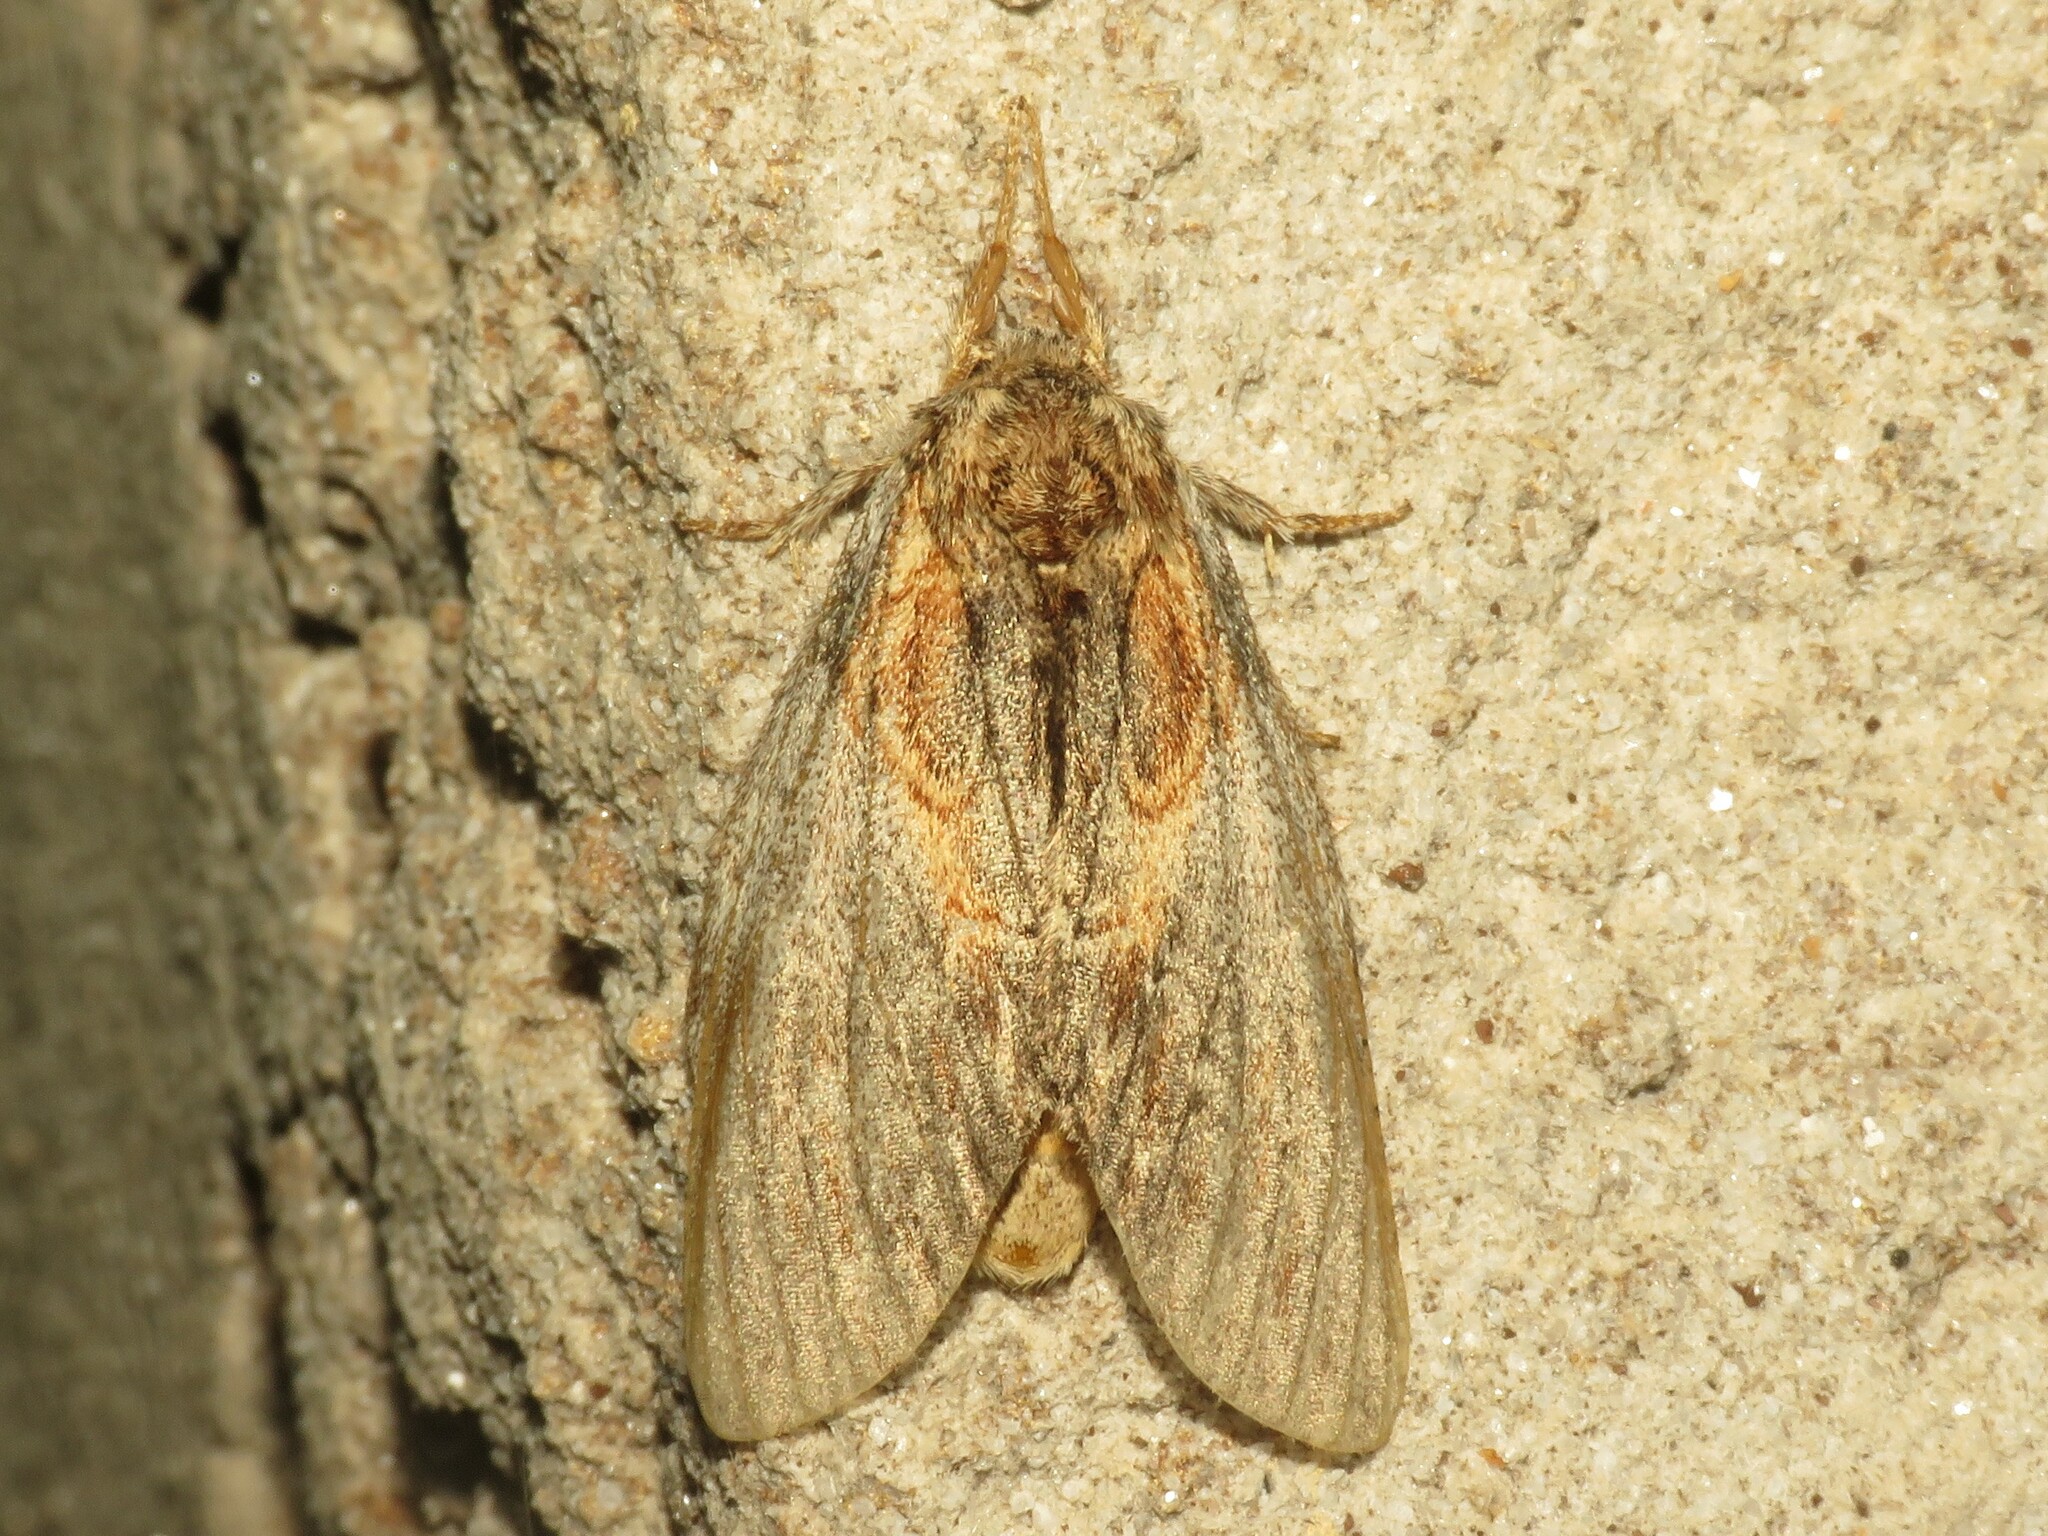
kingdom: Animalia
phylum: Arthropoda
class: Insecta
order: Lepidoptera
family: Notodontidae
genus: Peridea
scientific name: Peridea basitriens
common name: Oval-based prominent
